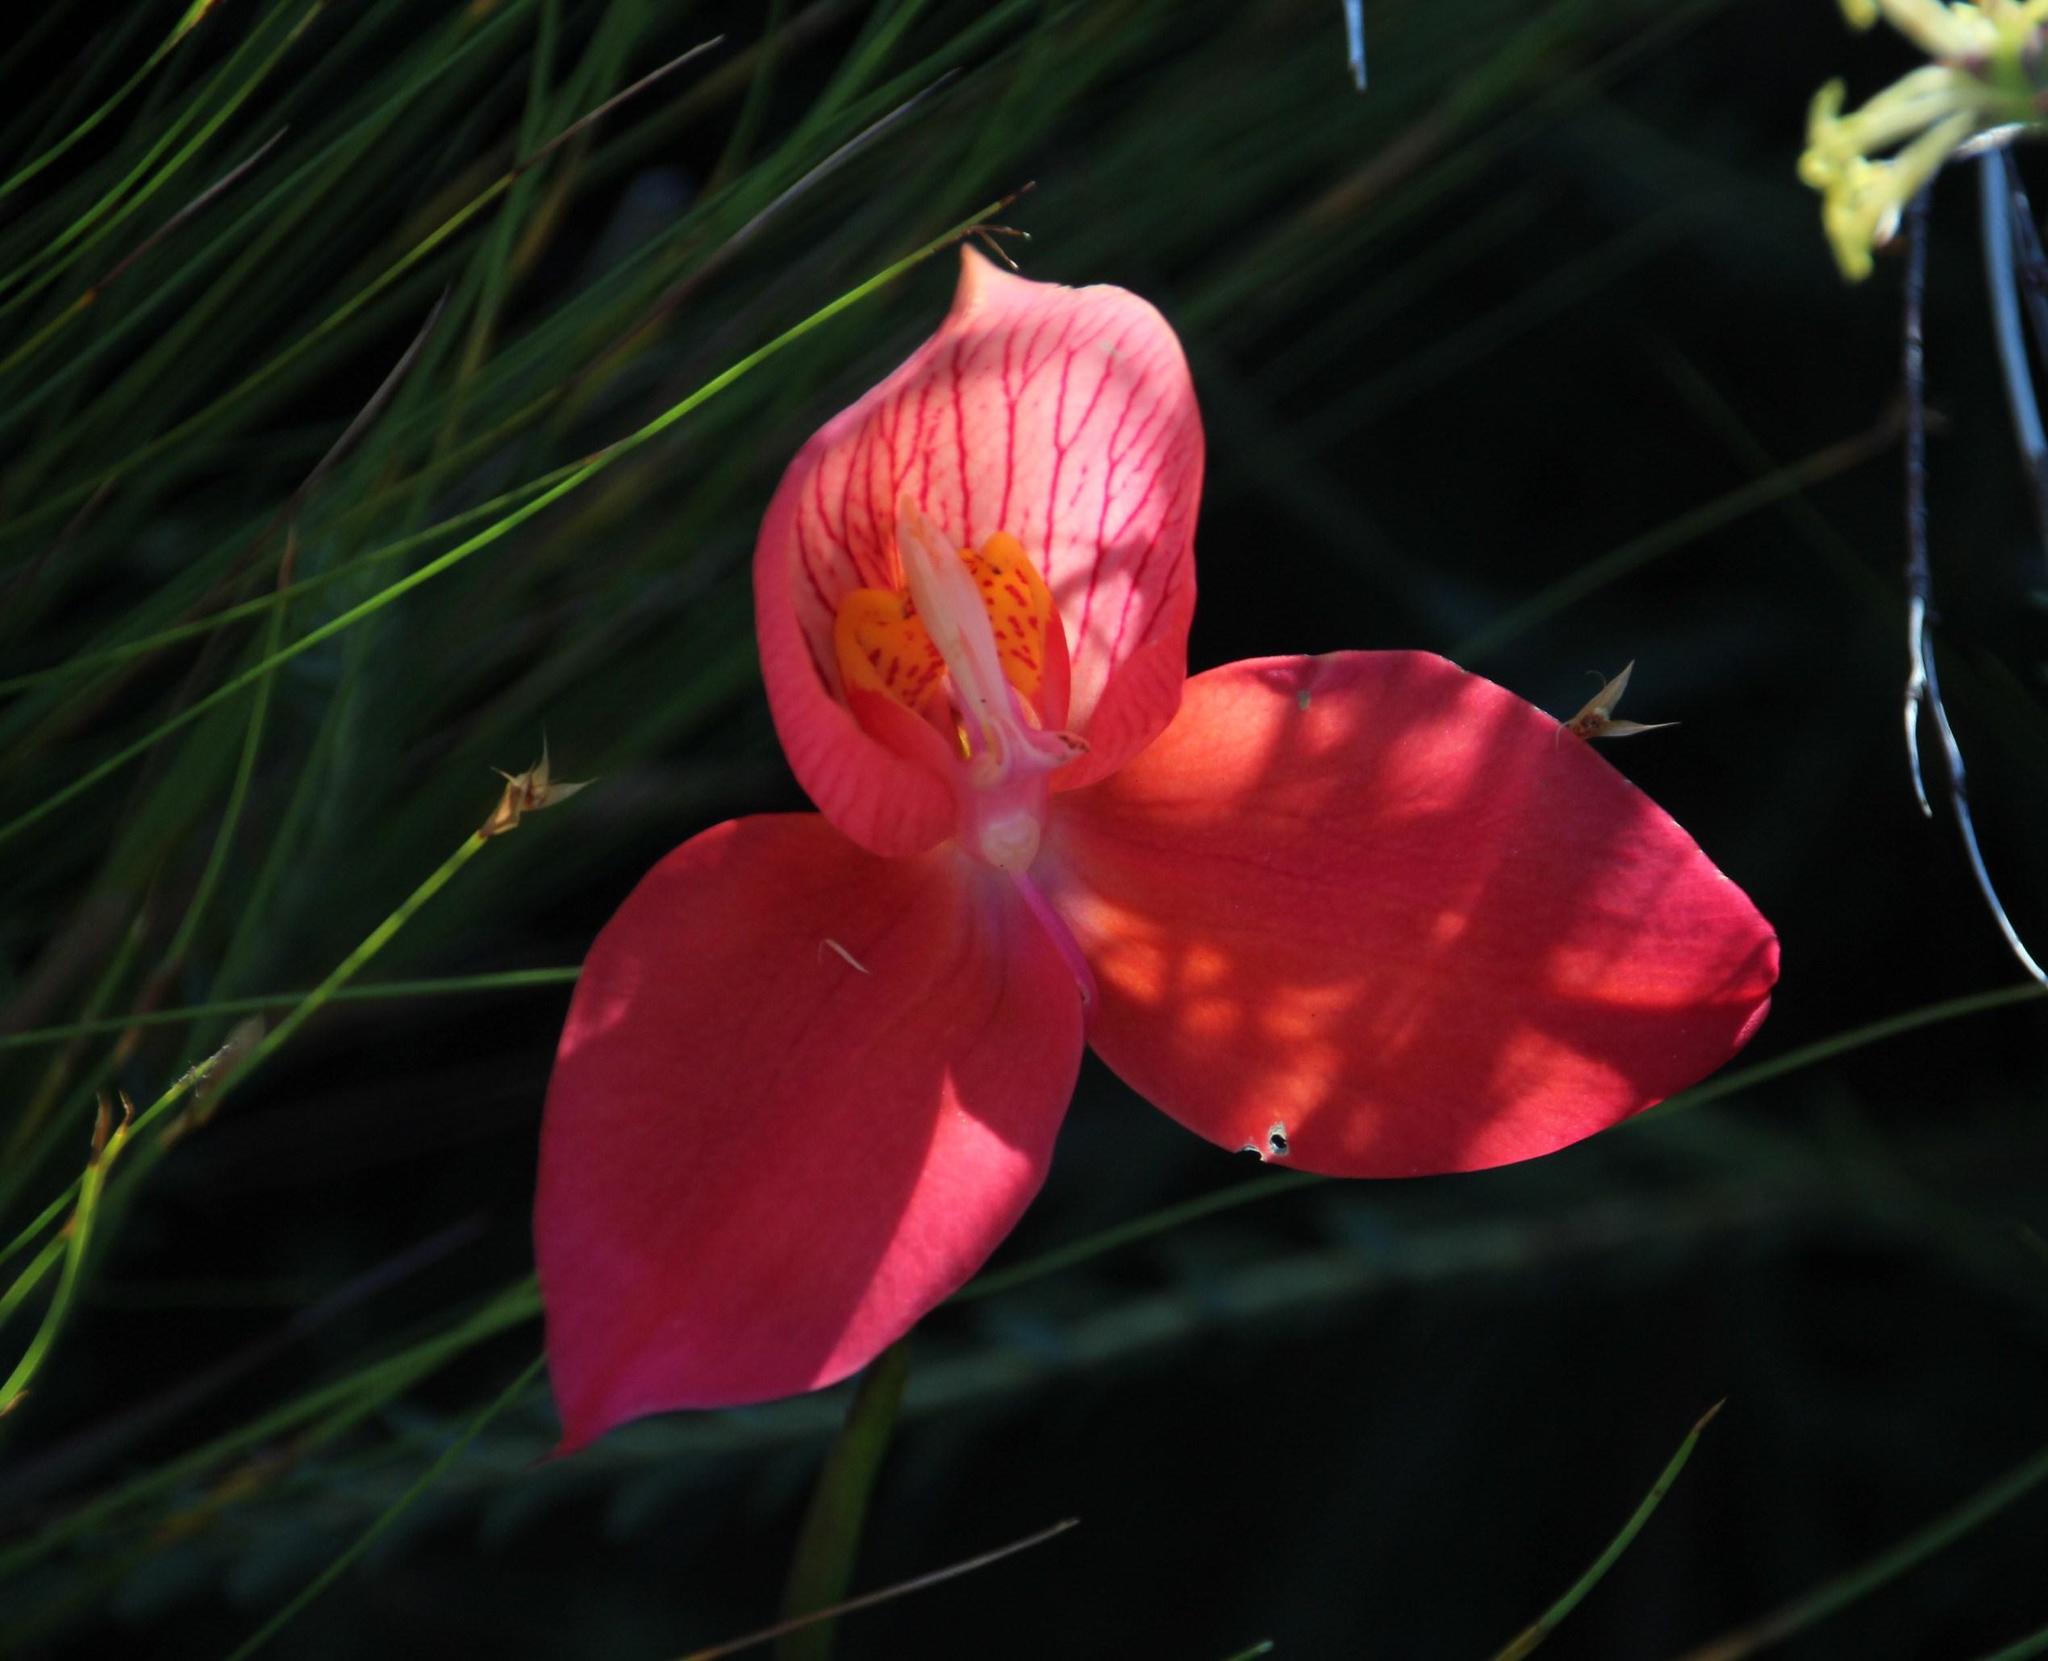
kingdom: Plantae
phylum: Tracheophyta
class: Liliopsida
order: Asparagales
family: Orchidaceae
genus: Disa
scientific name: Disa uniflora
